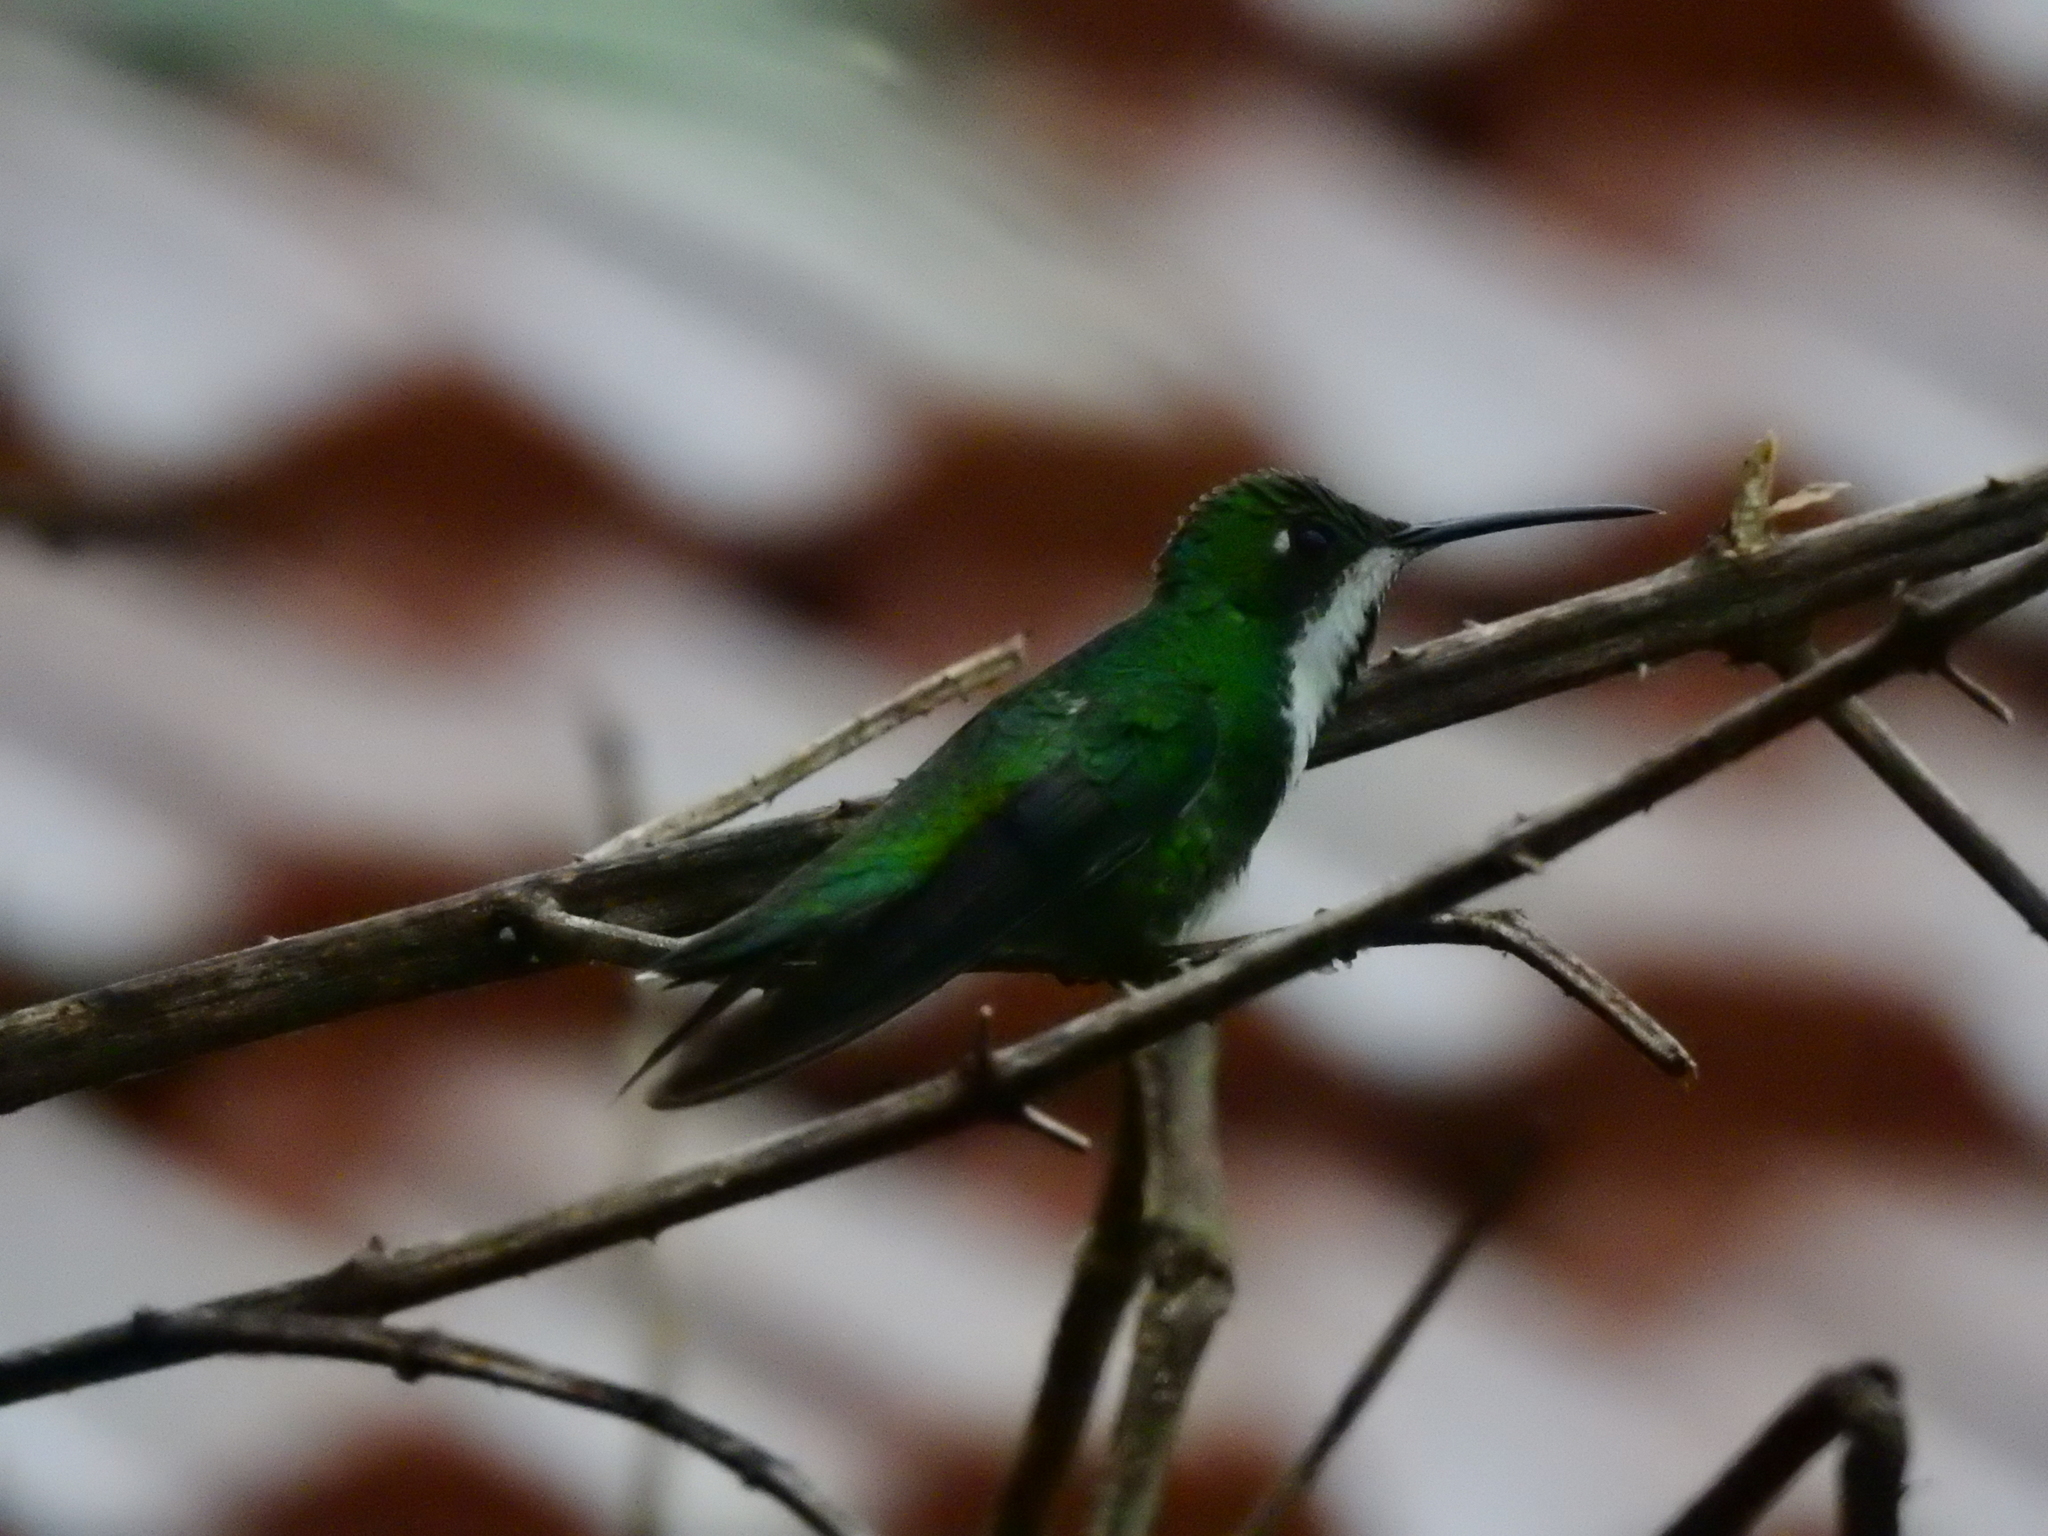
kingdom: Animalia
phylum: Chordata
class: Aves
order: Apodiformes
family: Trochilidae
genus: Anthracothorax
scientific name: Anthracothorax nigricollis
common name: Black-throated mango
